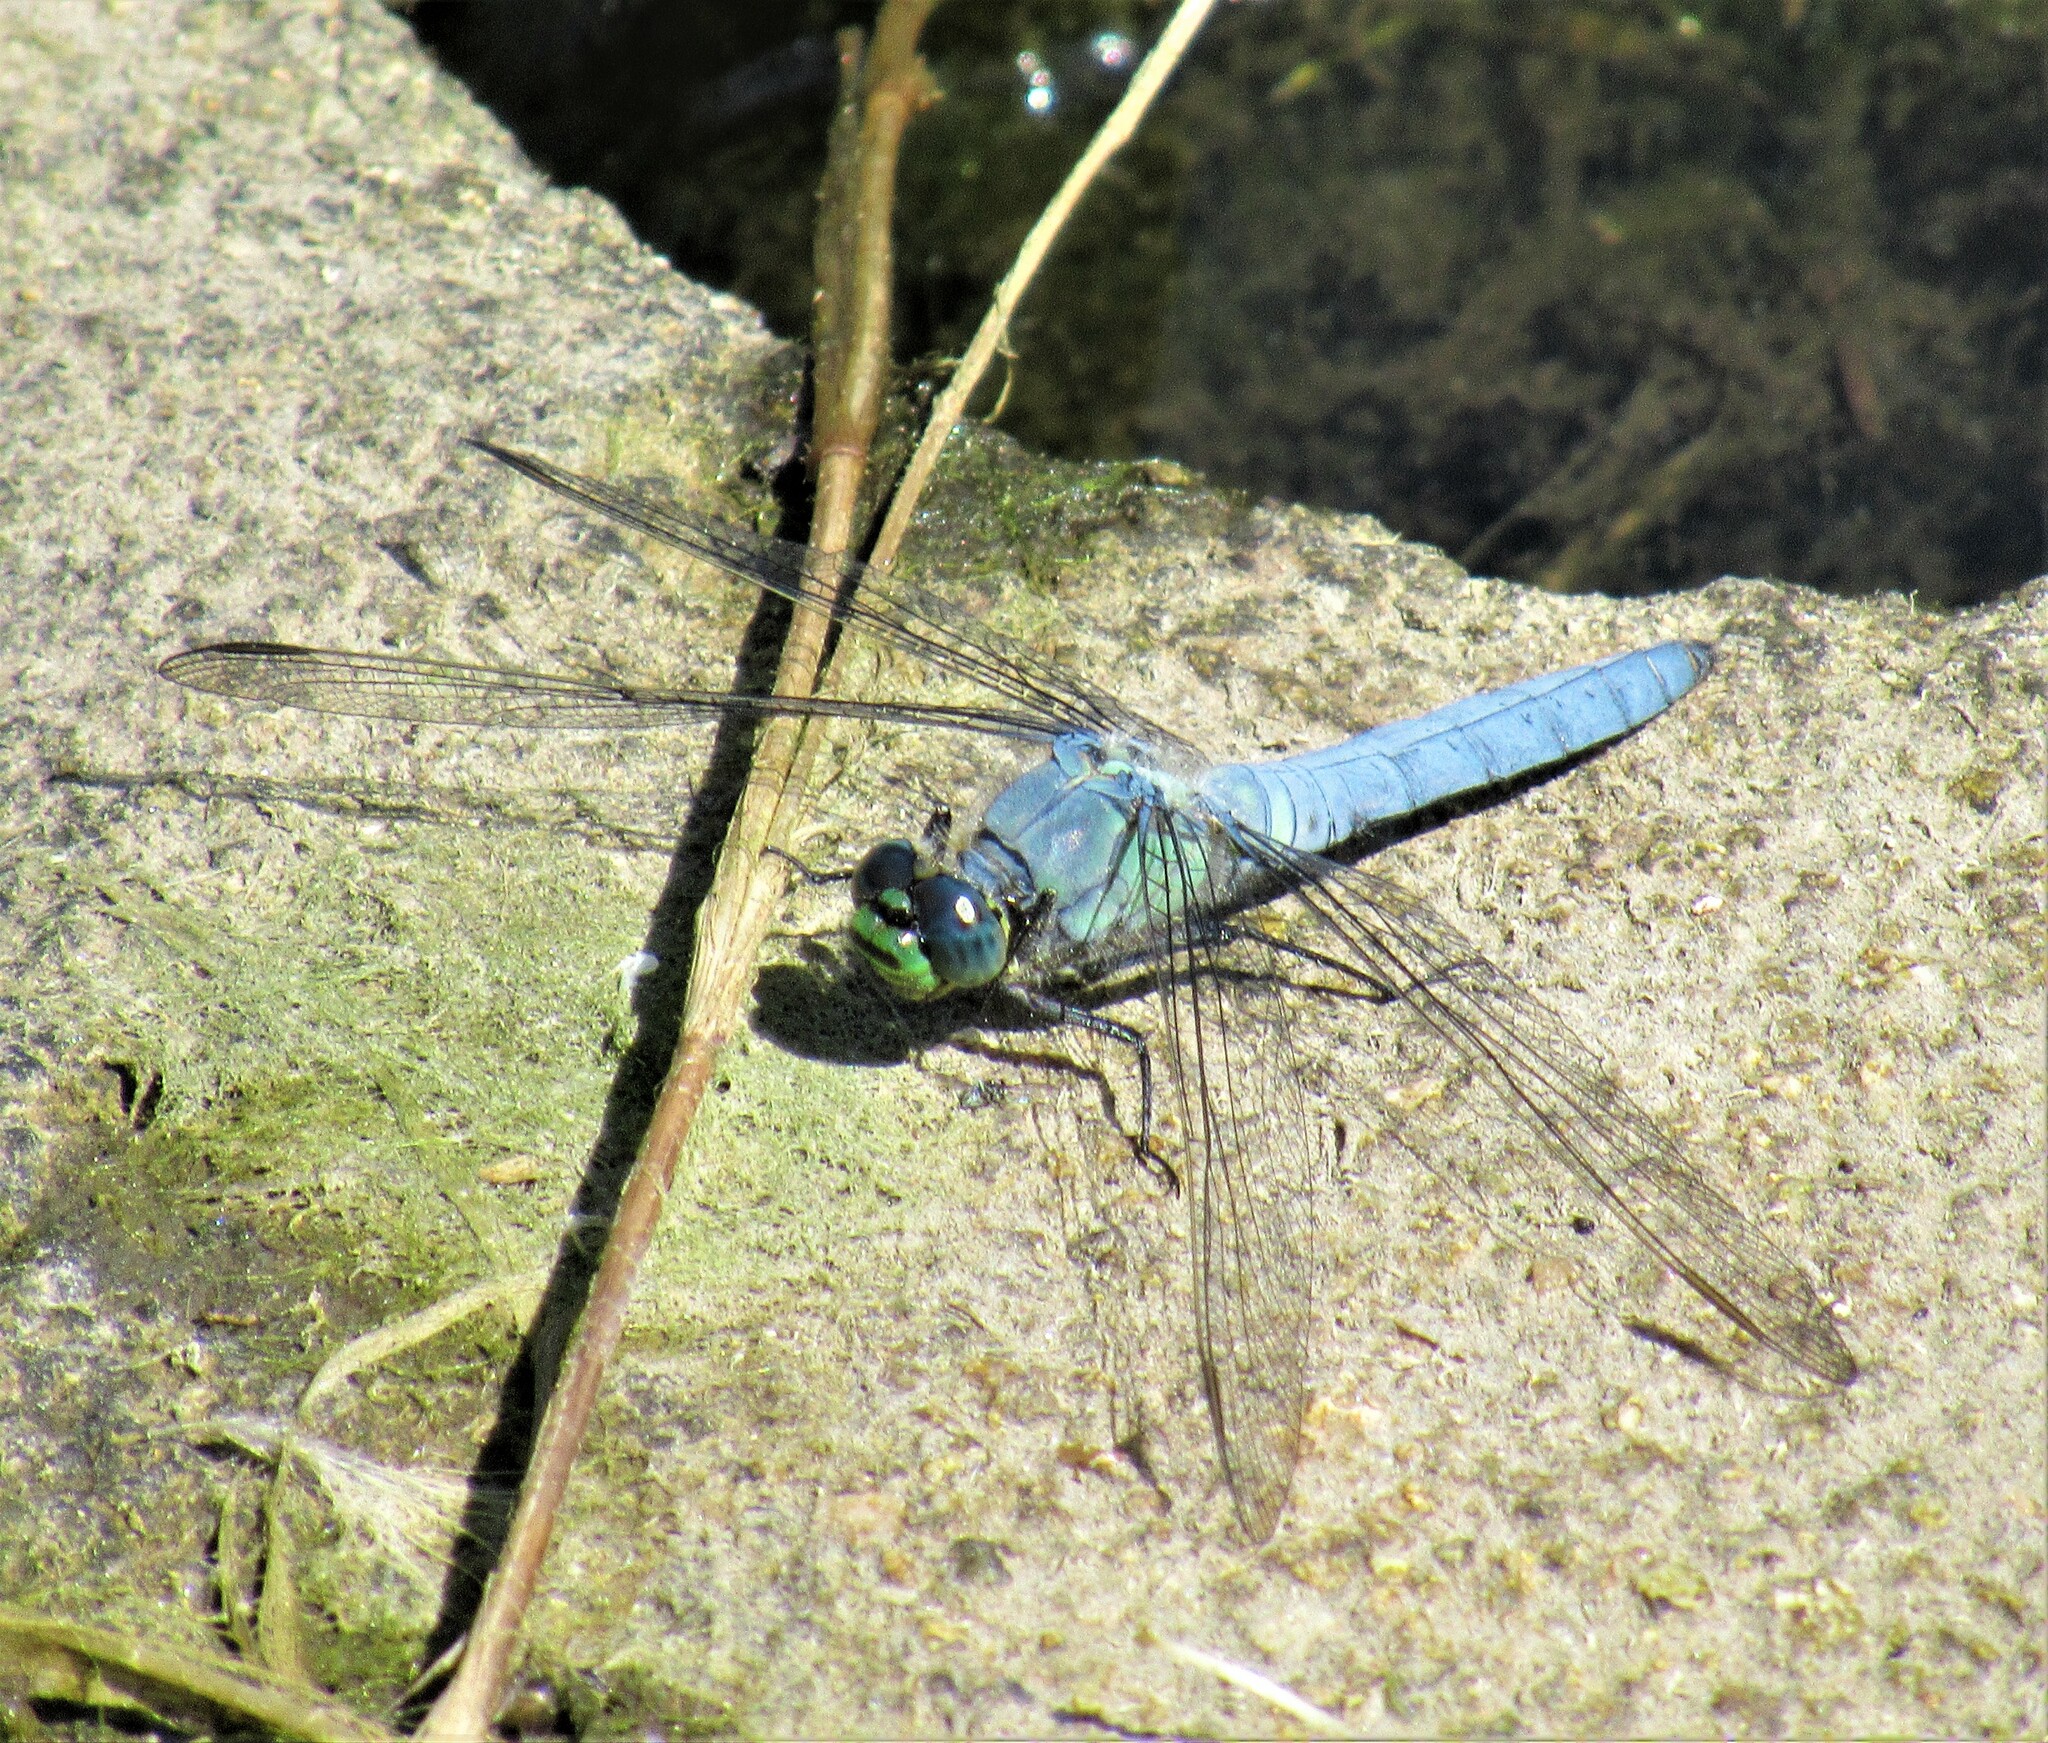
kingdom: Animalia
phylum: Arthropoda
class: Insecta
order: Odonata
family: Libellulidae
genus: Erythemis
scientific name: Erythemis collocata
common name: Western pondhawk
